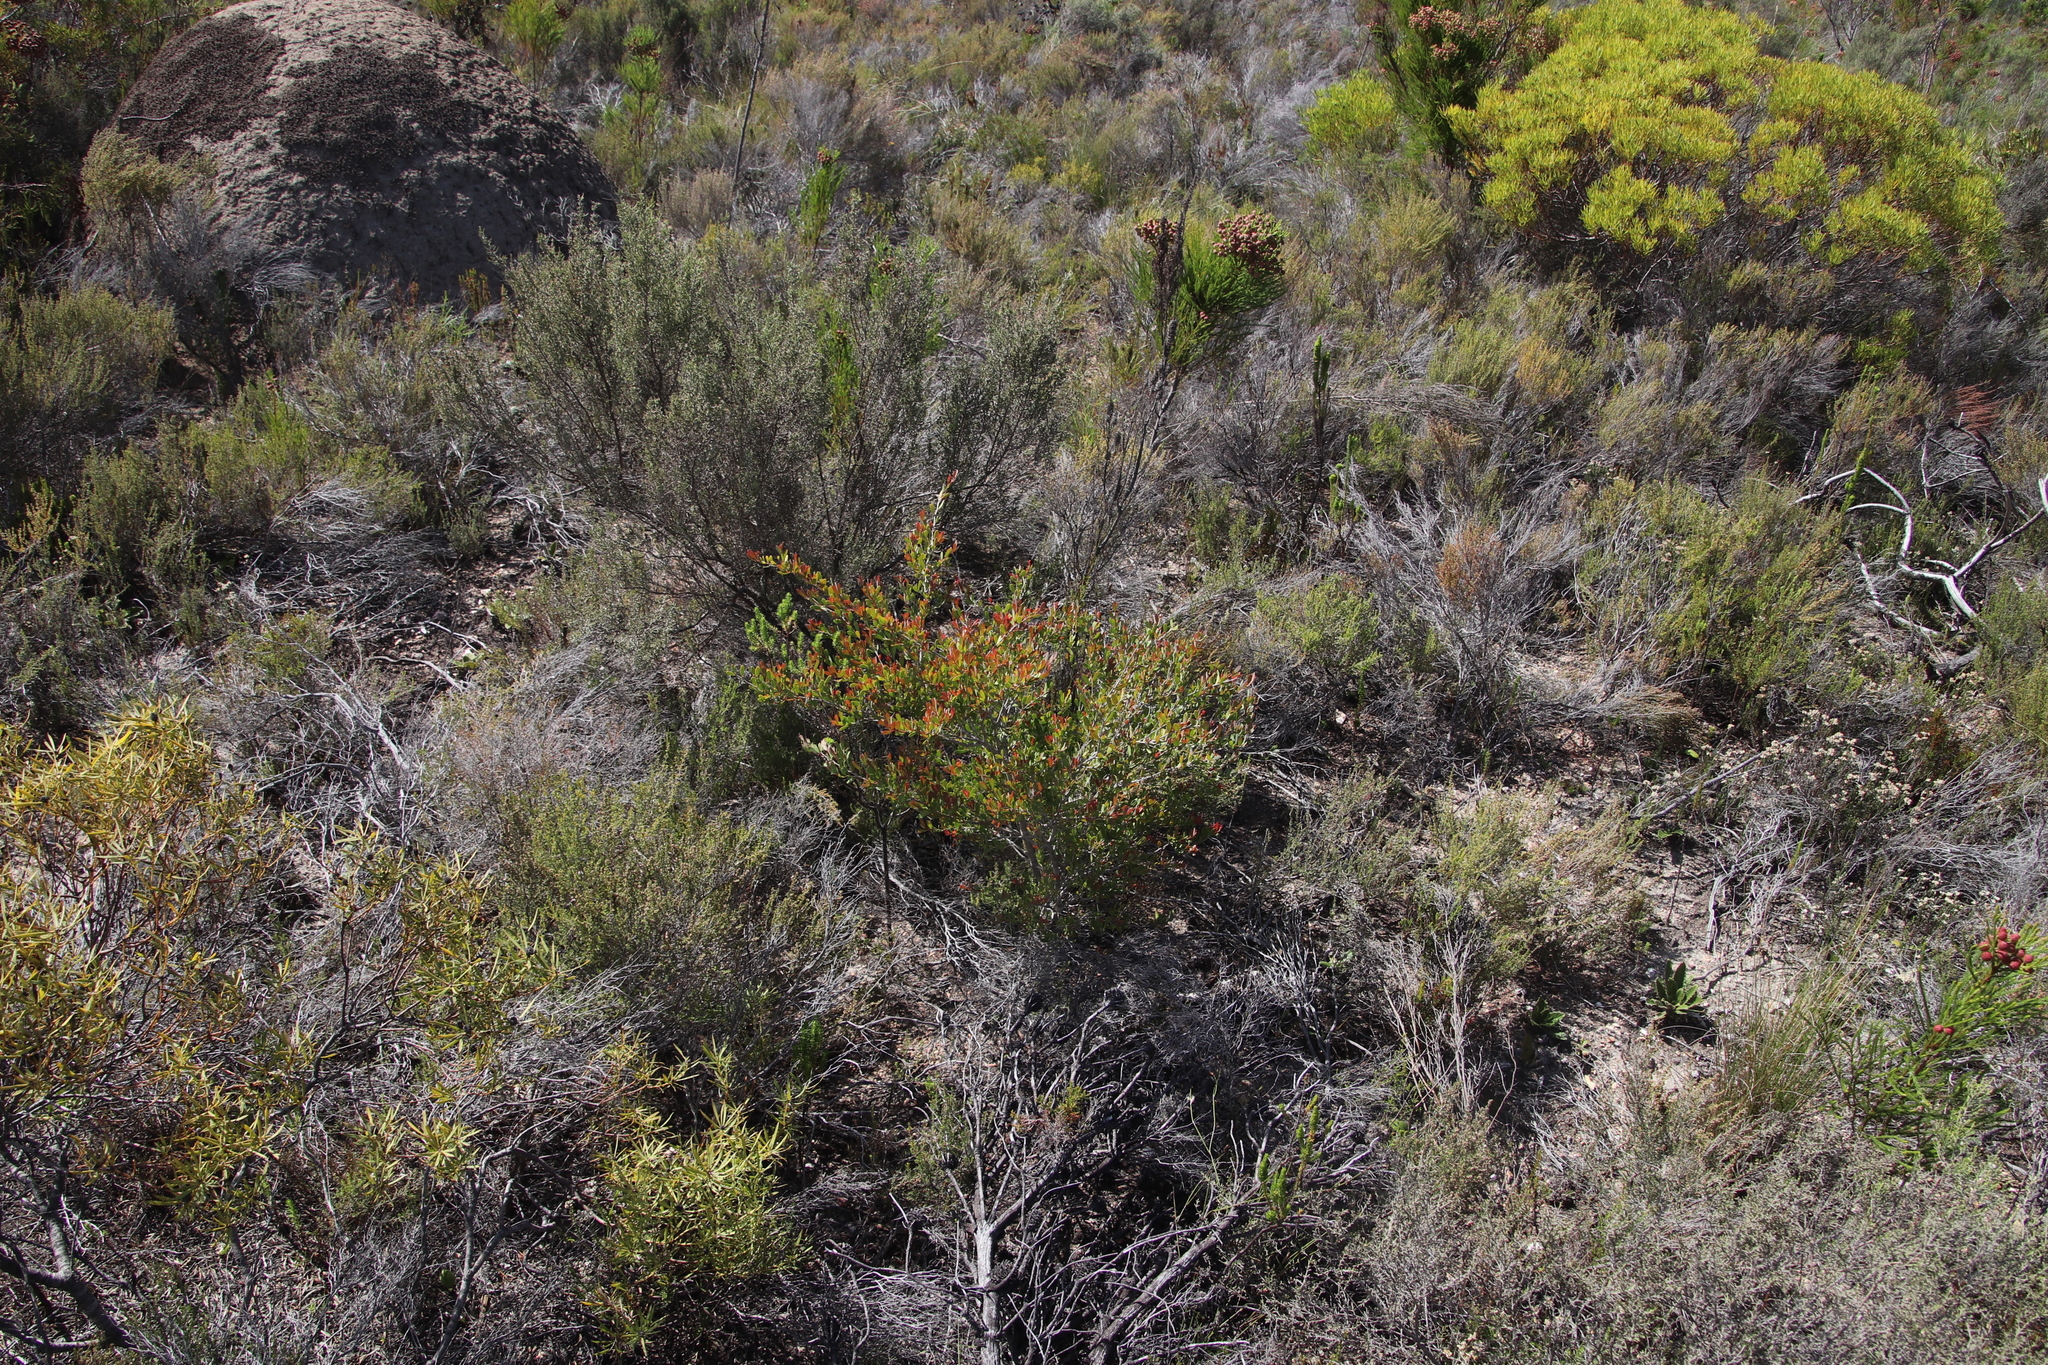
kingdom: Plantae
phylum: Tracheophyta
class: Magnoliopsida
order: Myrtales
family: Myrtaceae
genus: Leptospermum
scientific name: Leptospermum laevigatum
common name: Australian teatree
